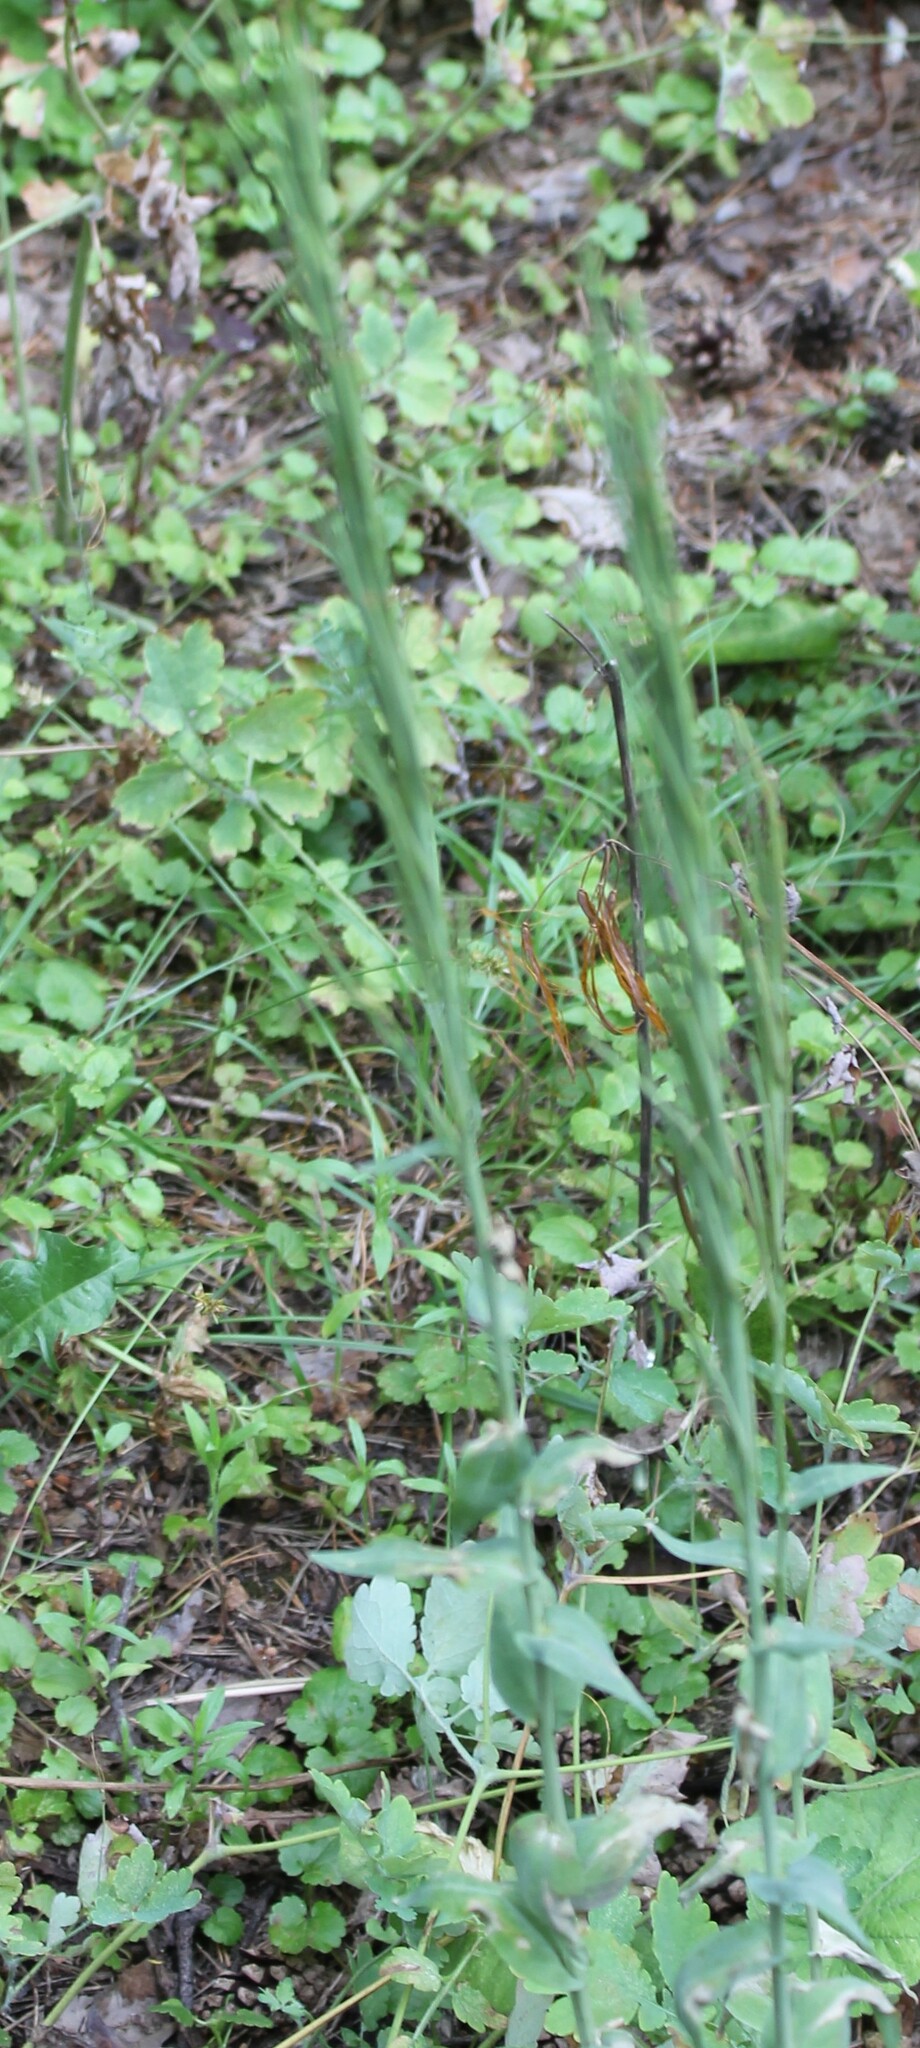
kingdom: Plantae
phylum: Tracheophyta
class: Magnoliopsida
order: Brassicales
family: Brassicaceae
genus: Turritis
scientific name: Turritis glabra
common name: Tower rockcress
